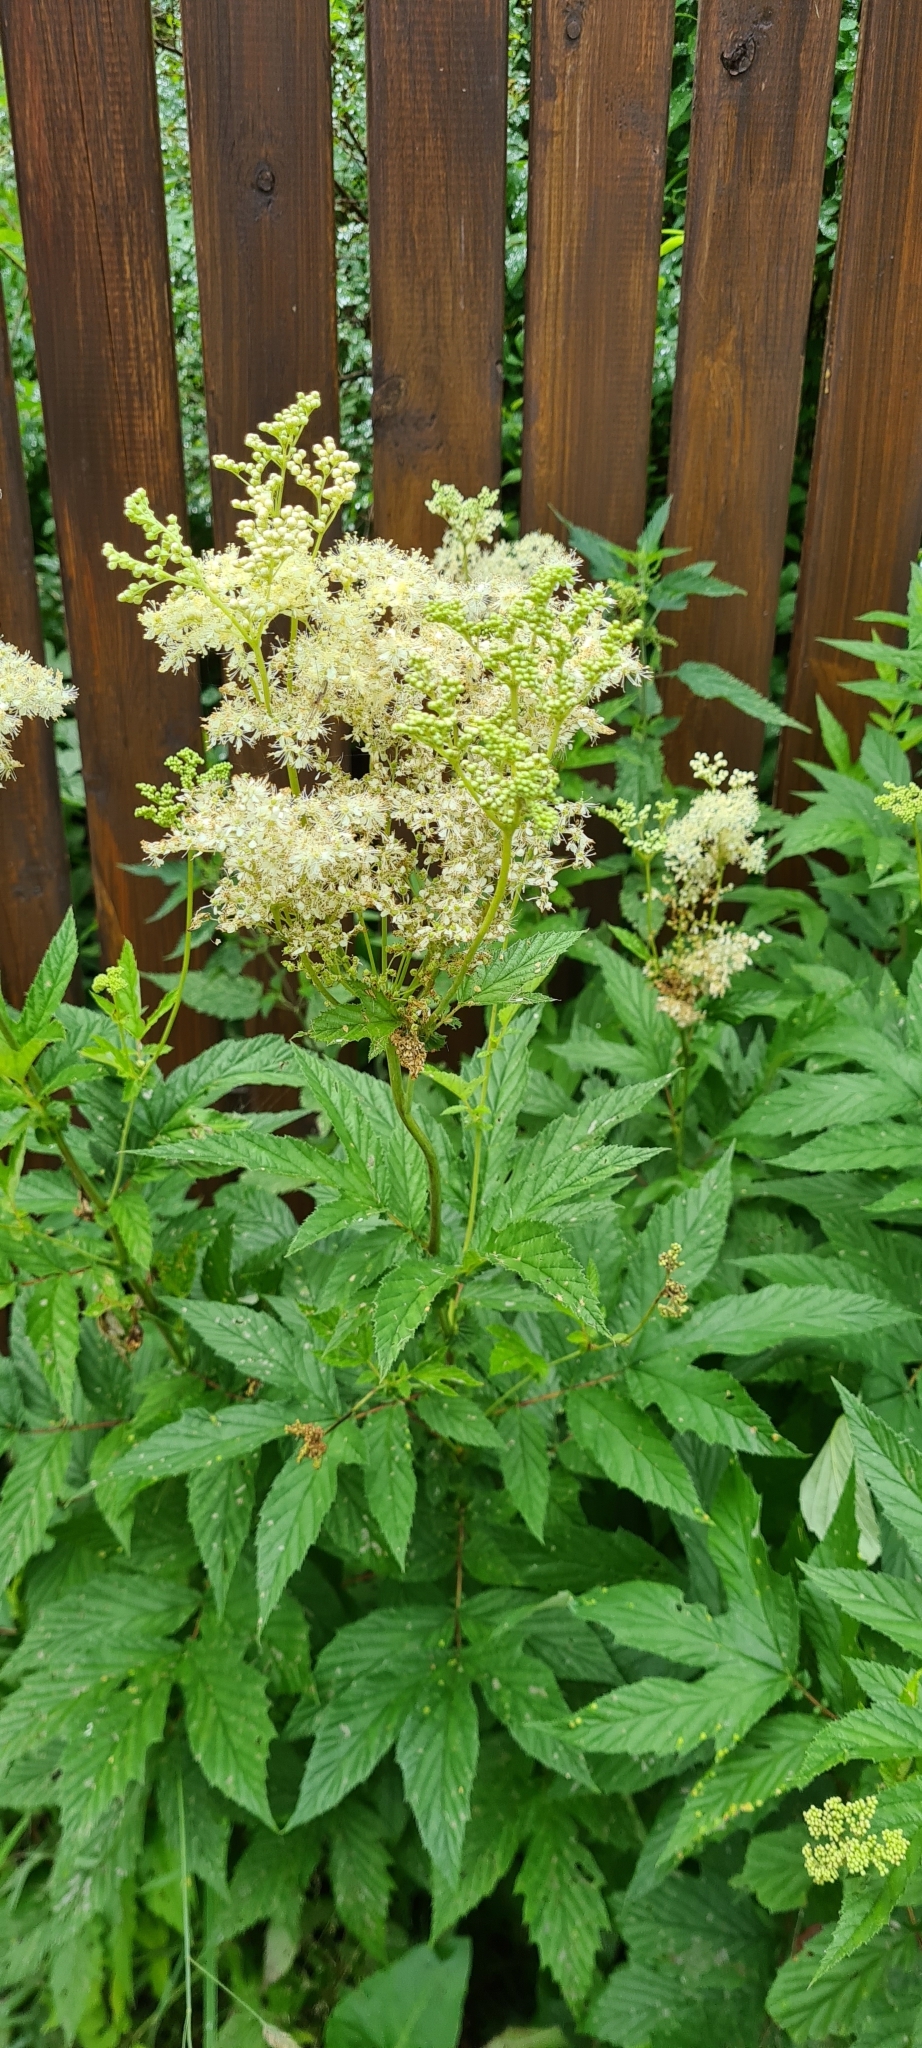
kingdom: Plantae
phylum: Tracheophyta
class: Magnoliopsida
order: Rosales
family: Rosaceae
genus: Filipendula
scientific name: Filipendula ulmaria
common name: Meadowsweet
